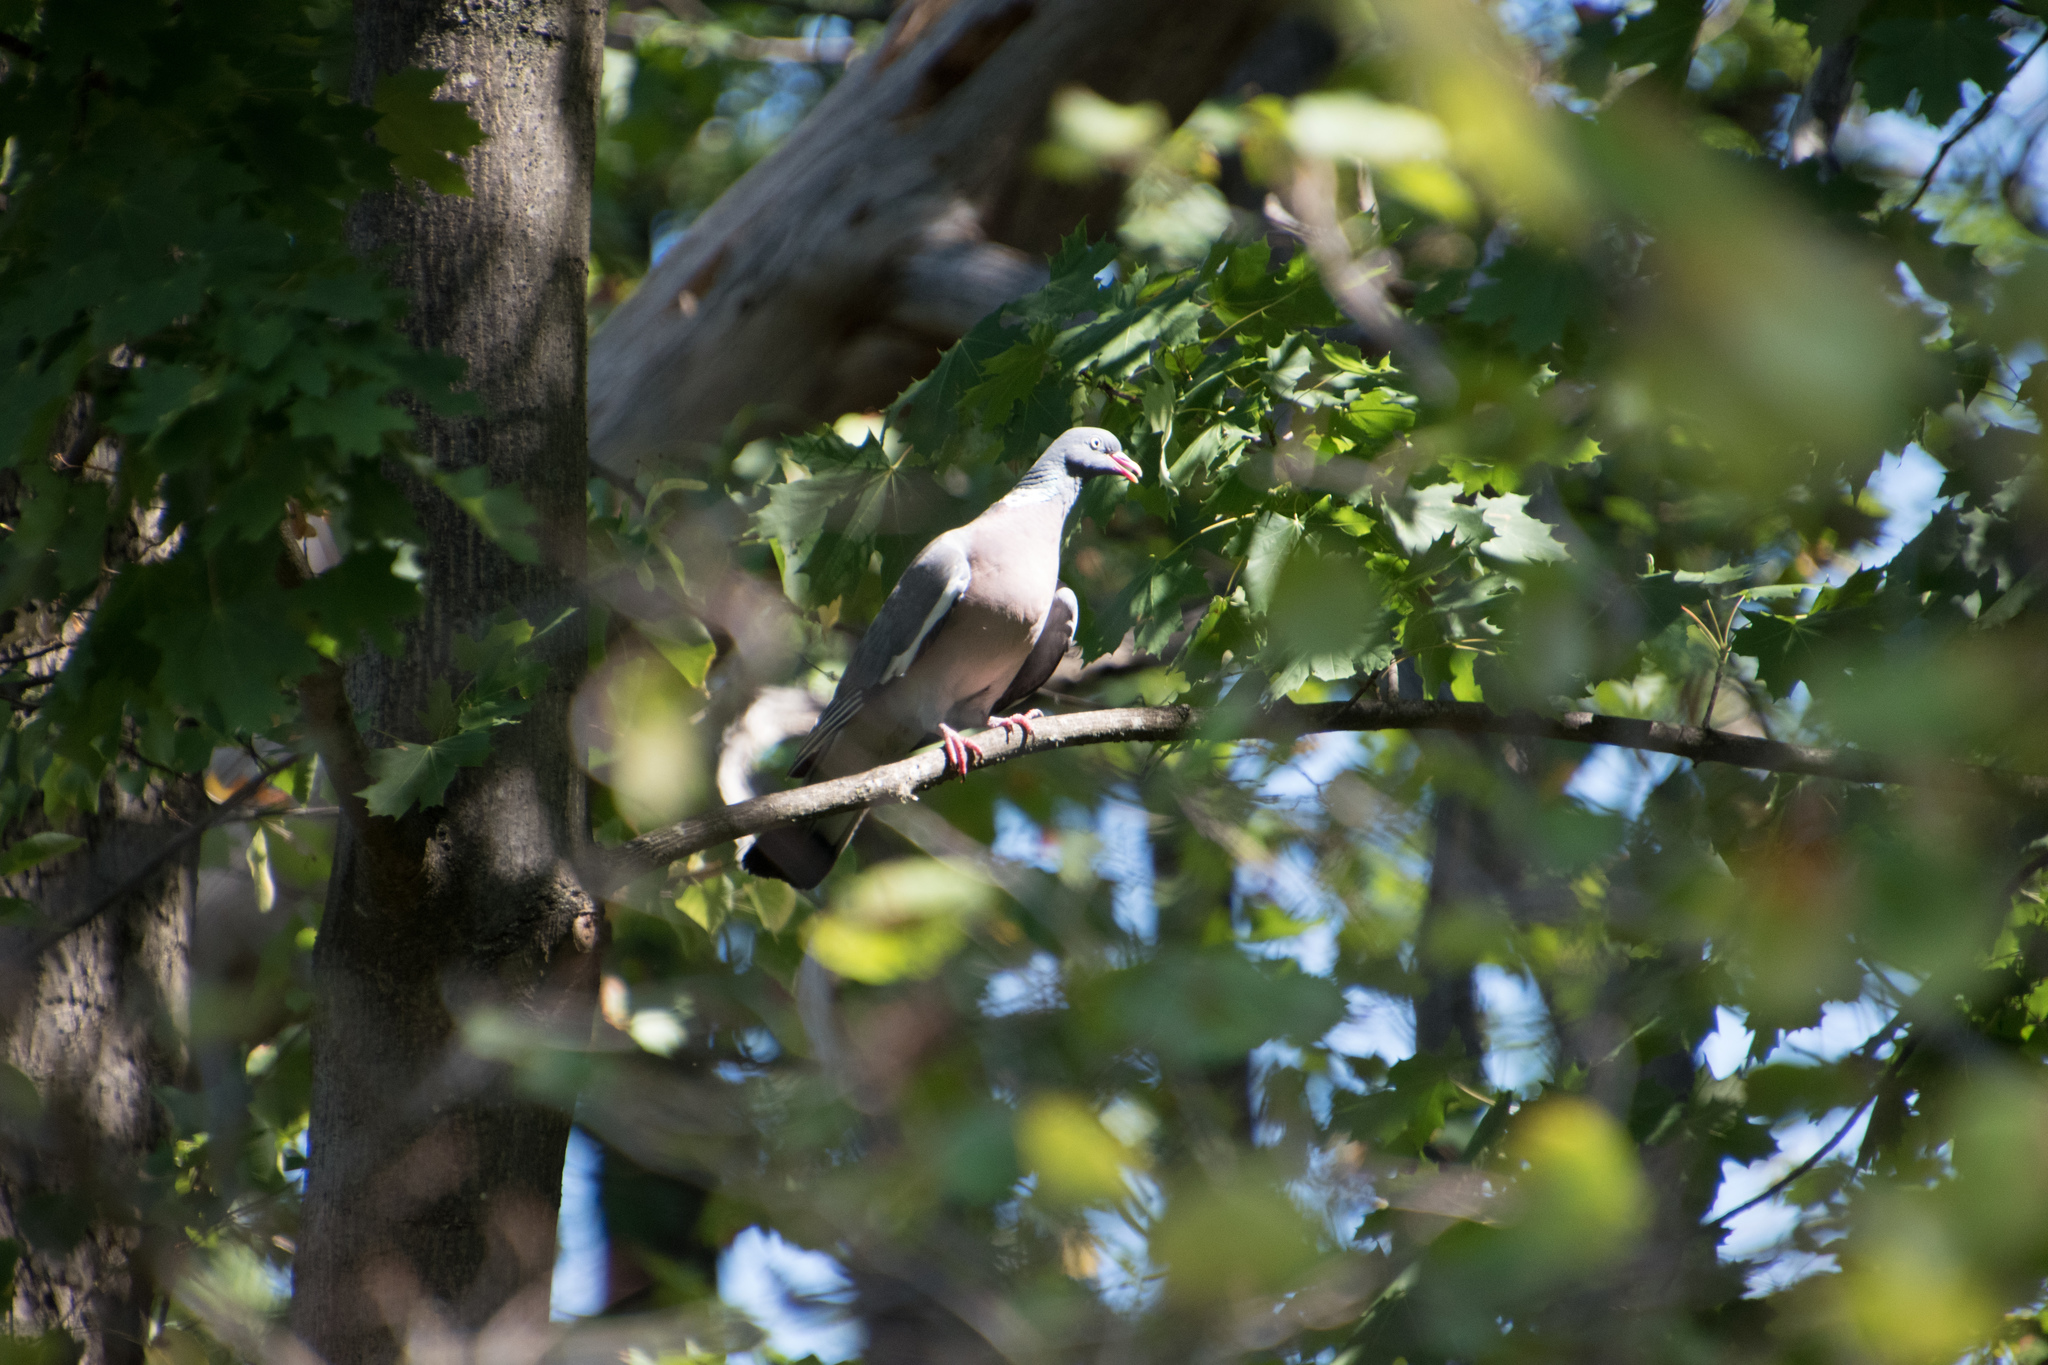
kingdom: Animalia
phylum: Chordata
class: Aves
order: Columbiformes
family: Columbidae
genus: Columba
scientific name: Columba palumbus
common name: Common wood pigeon
